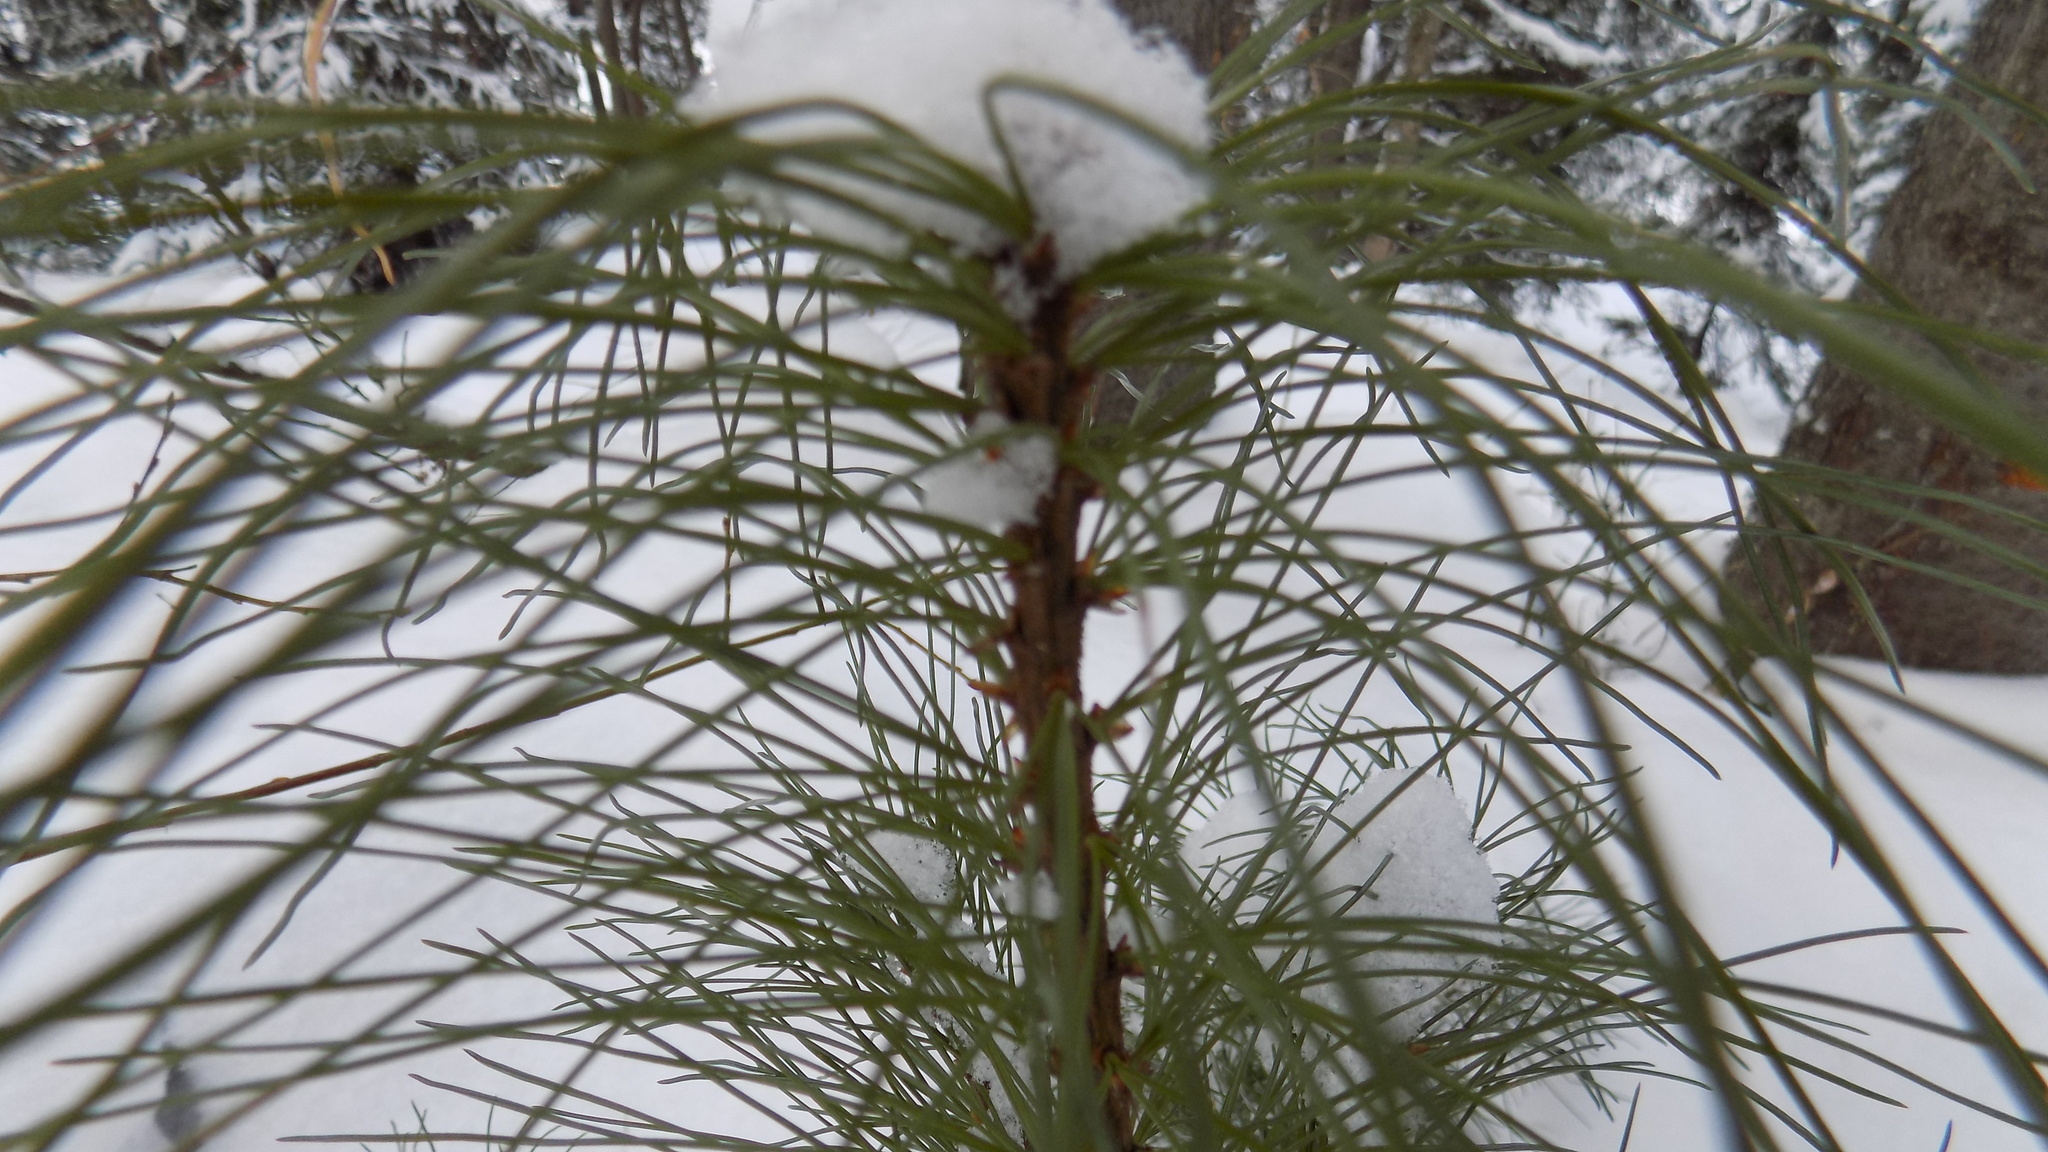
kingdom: Plantae
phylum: Tracheophyta
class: Pinopsida
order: Pinales
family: Pinaceae
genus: Pinus
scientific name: Pinus sibirica
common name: Siberian pine
